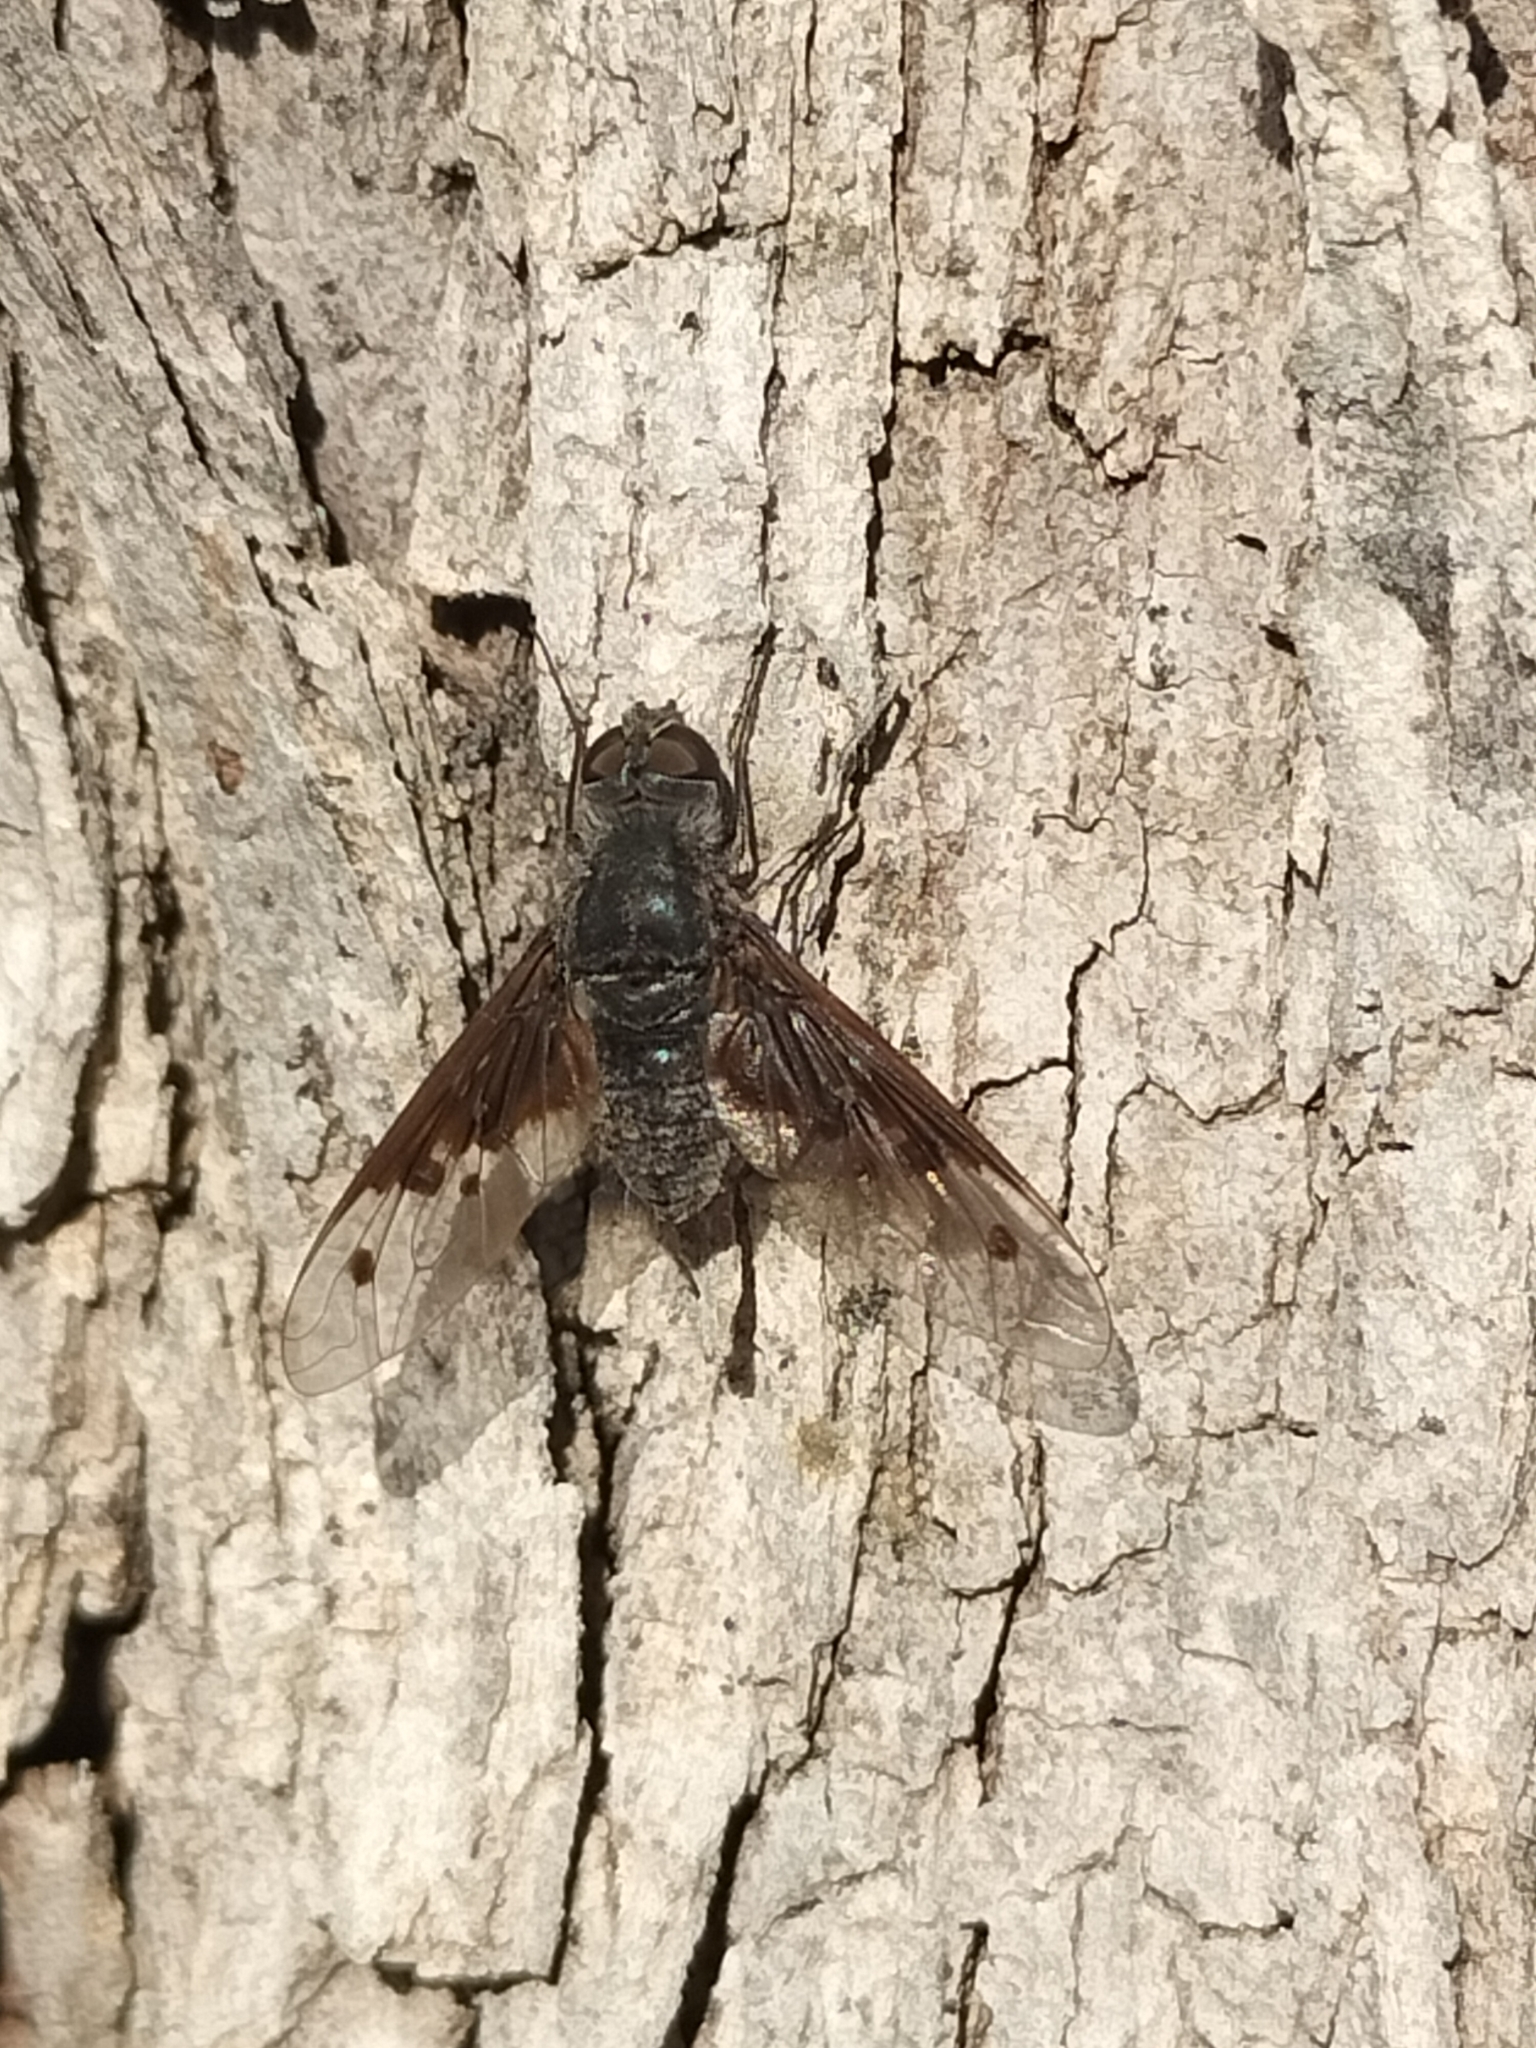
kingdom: Animalia
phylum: Arthropoda
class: Insecta
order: Diptera
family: Bombyliidae
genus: Anthrax
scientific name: Anthrax incomptus
